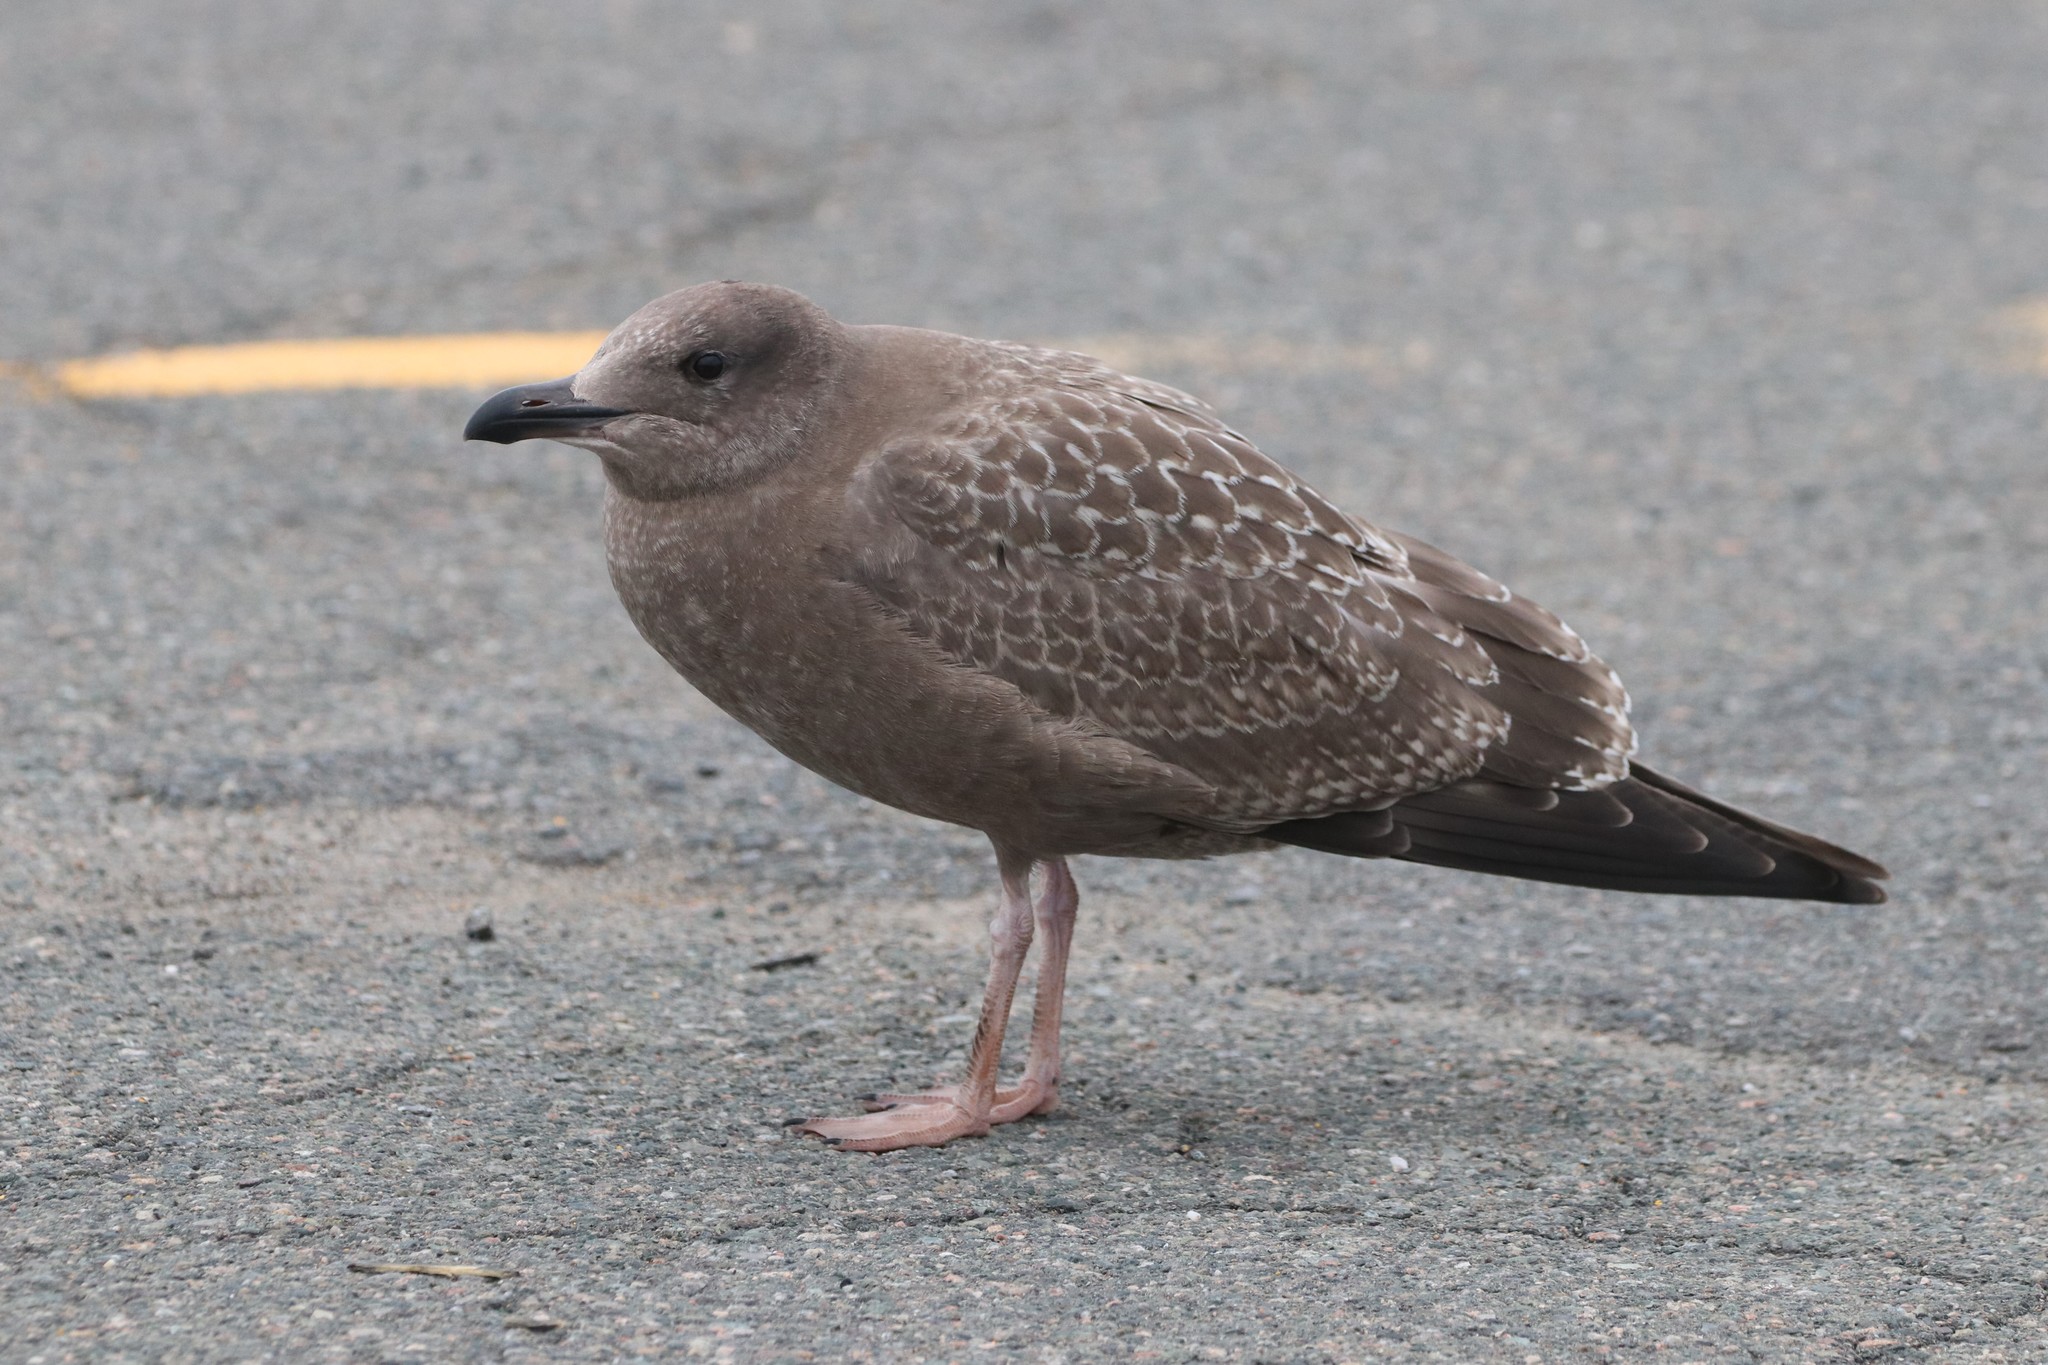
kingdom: Animalia
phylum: Chordata
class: Aves
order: Charadriiformes
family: Laridae
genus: Larus
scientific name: Larus argentatus
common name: Herring gull
